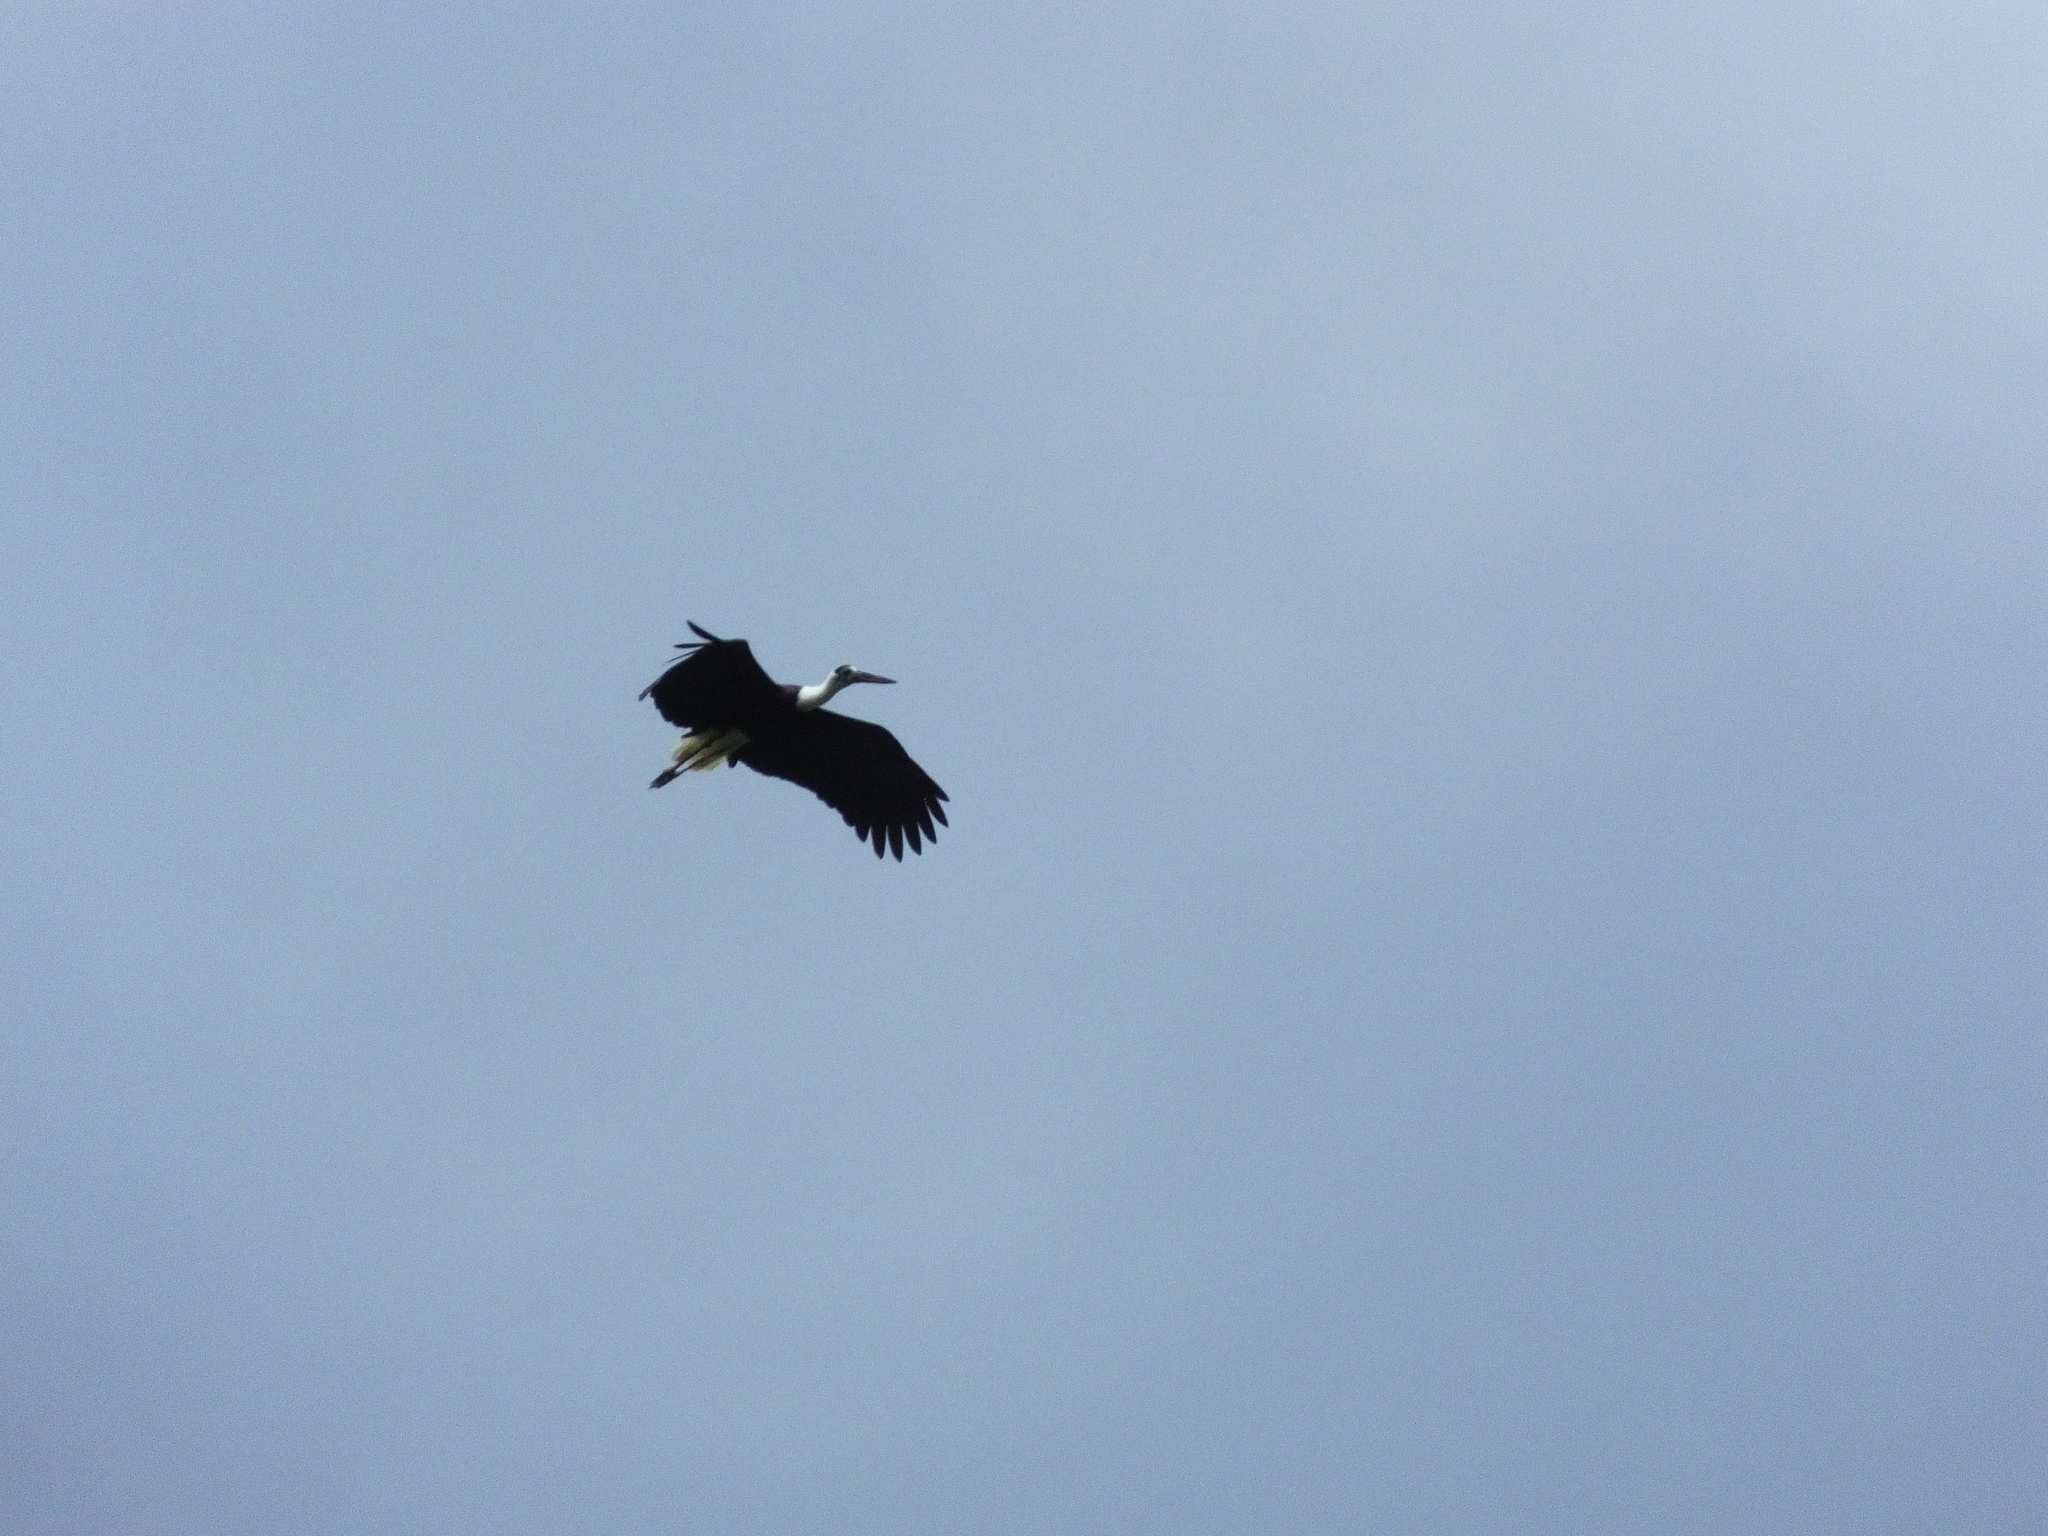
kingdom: Animalia
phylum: Chordata
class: Aves
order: Ciconiiformes
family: Ciconiidae
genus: Ciconia
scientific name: Ciconia episcopus
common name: Woolly-necked stork
